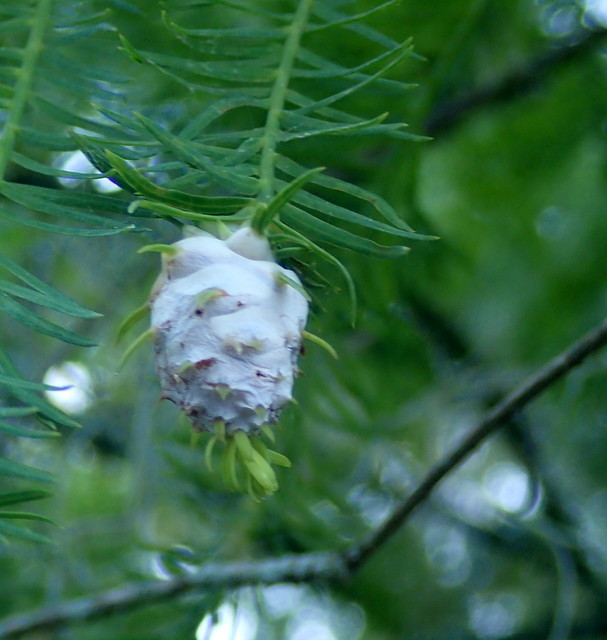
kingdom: Animalia
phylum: Arthropoda
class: Insecta
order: Diptera
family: Cecidomyiidae
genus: Taxodiomyia
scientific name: Taxodiomyia cupressiananassa
